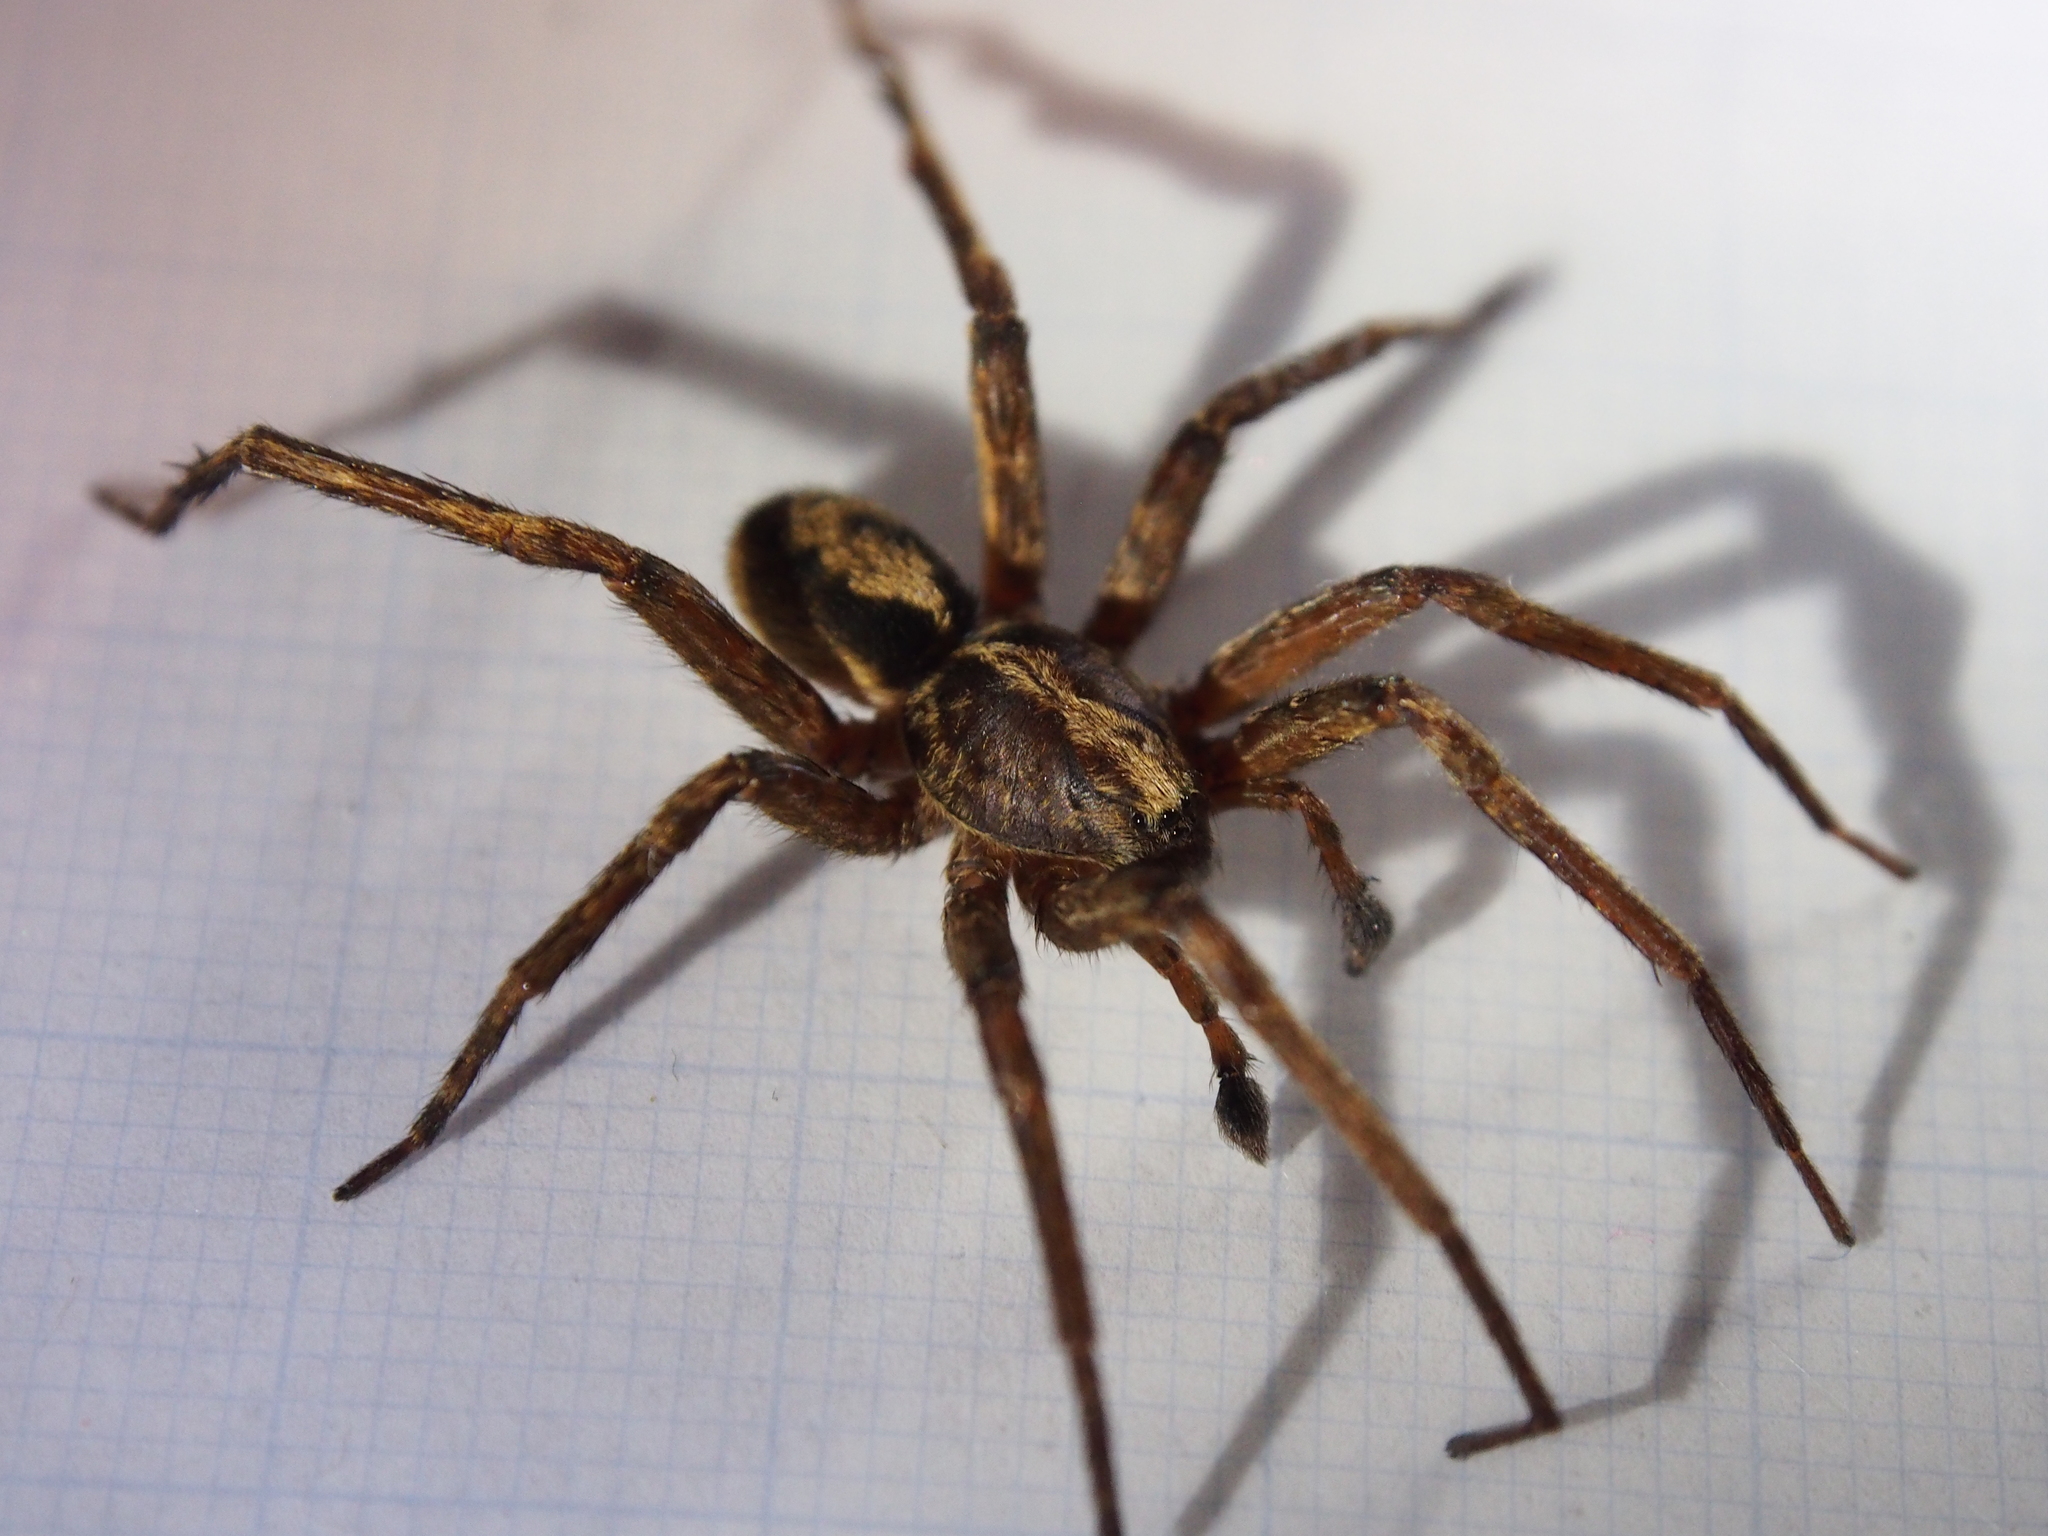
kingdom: Animalia
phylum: Arthropoda
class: Arachnida
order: Araneae
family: Ctenidae
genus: Kiekie
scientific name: Kiekie sinuatipes
